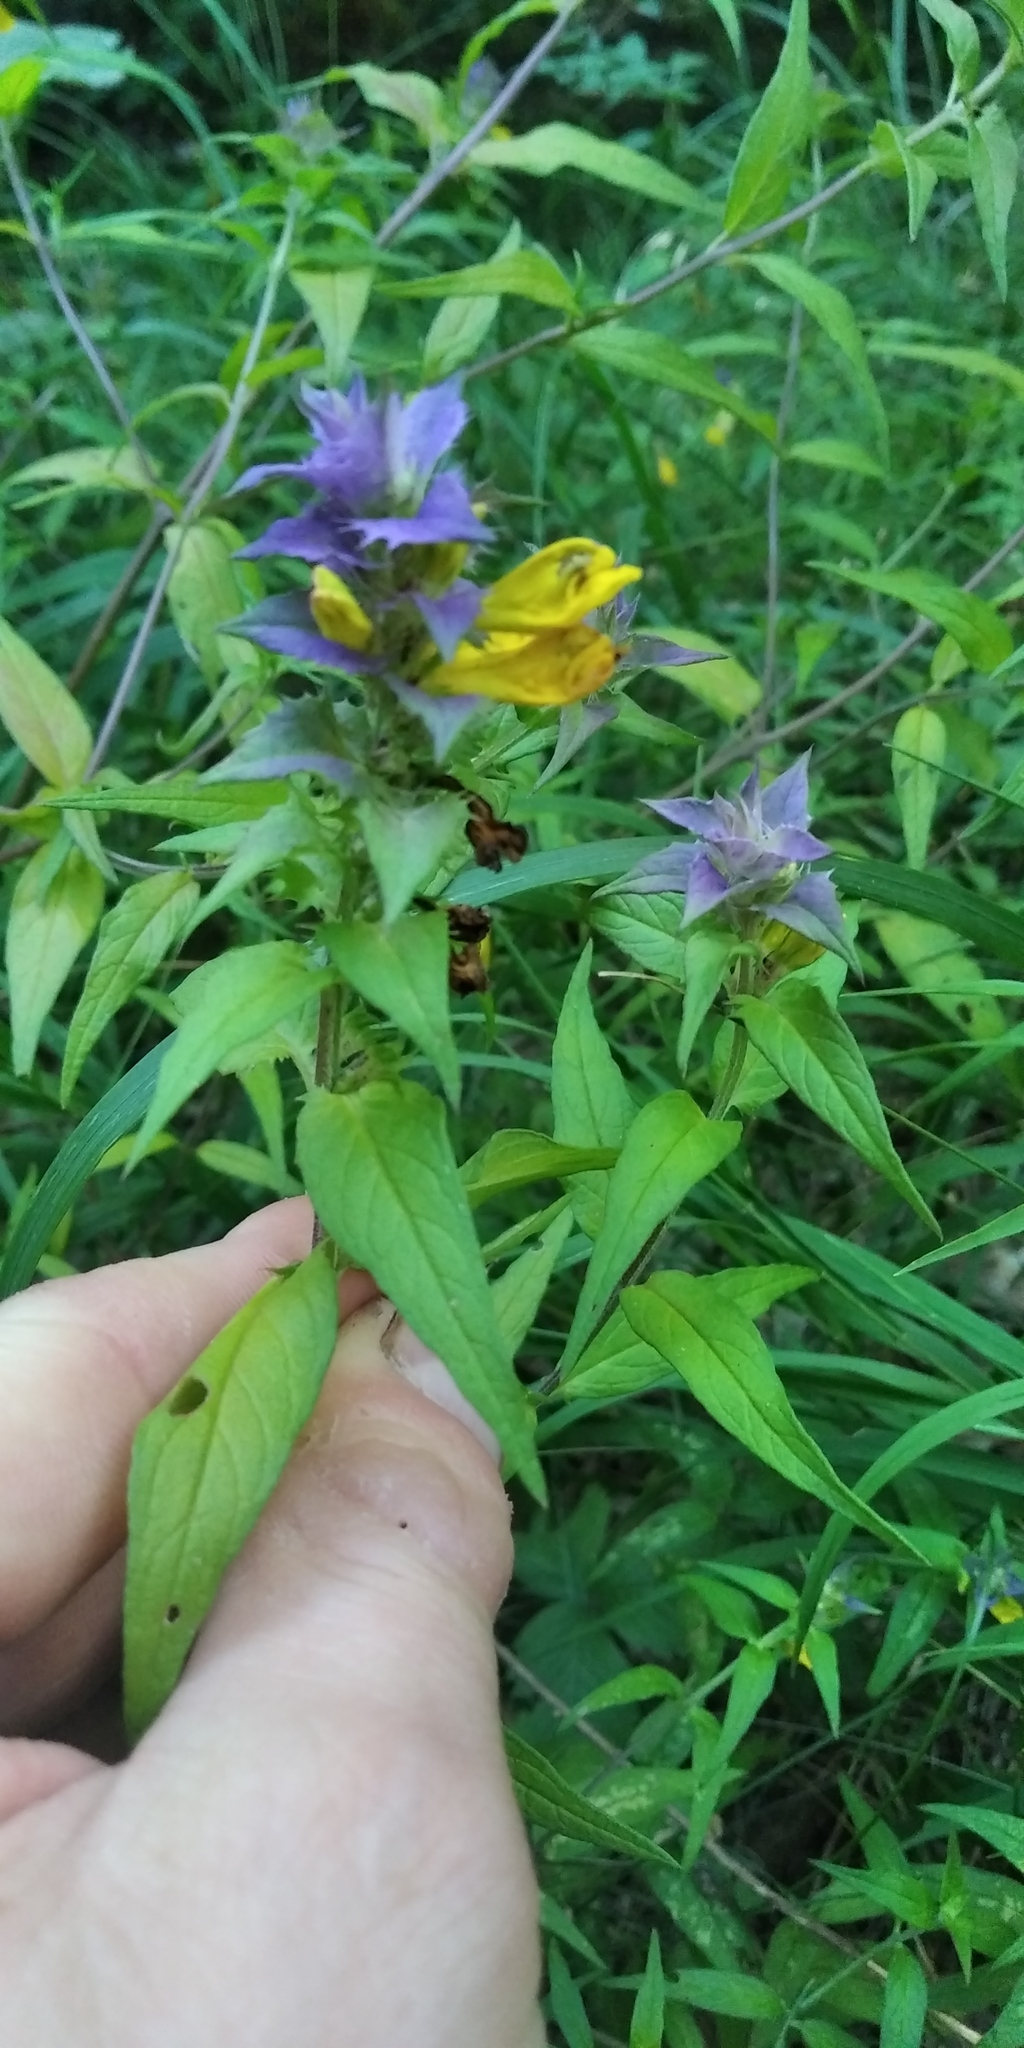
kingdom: Plantae
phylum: Tracheophyta
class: Magnoliopsida
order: Lamiales
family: Orobanchaceae
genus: Melampyrum
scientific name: Melampyrum nemorosum
